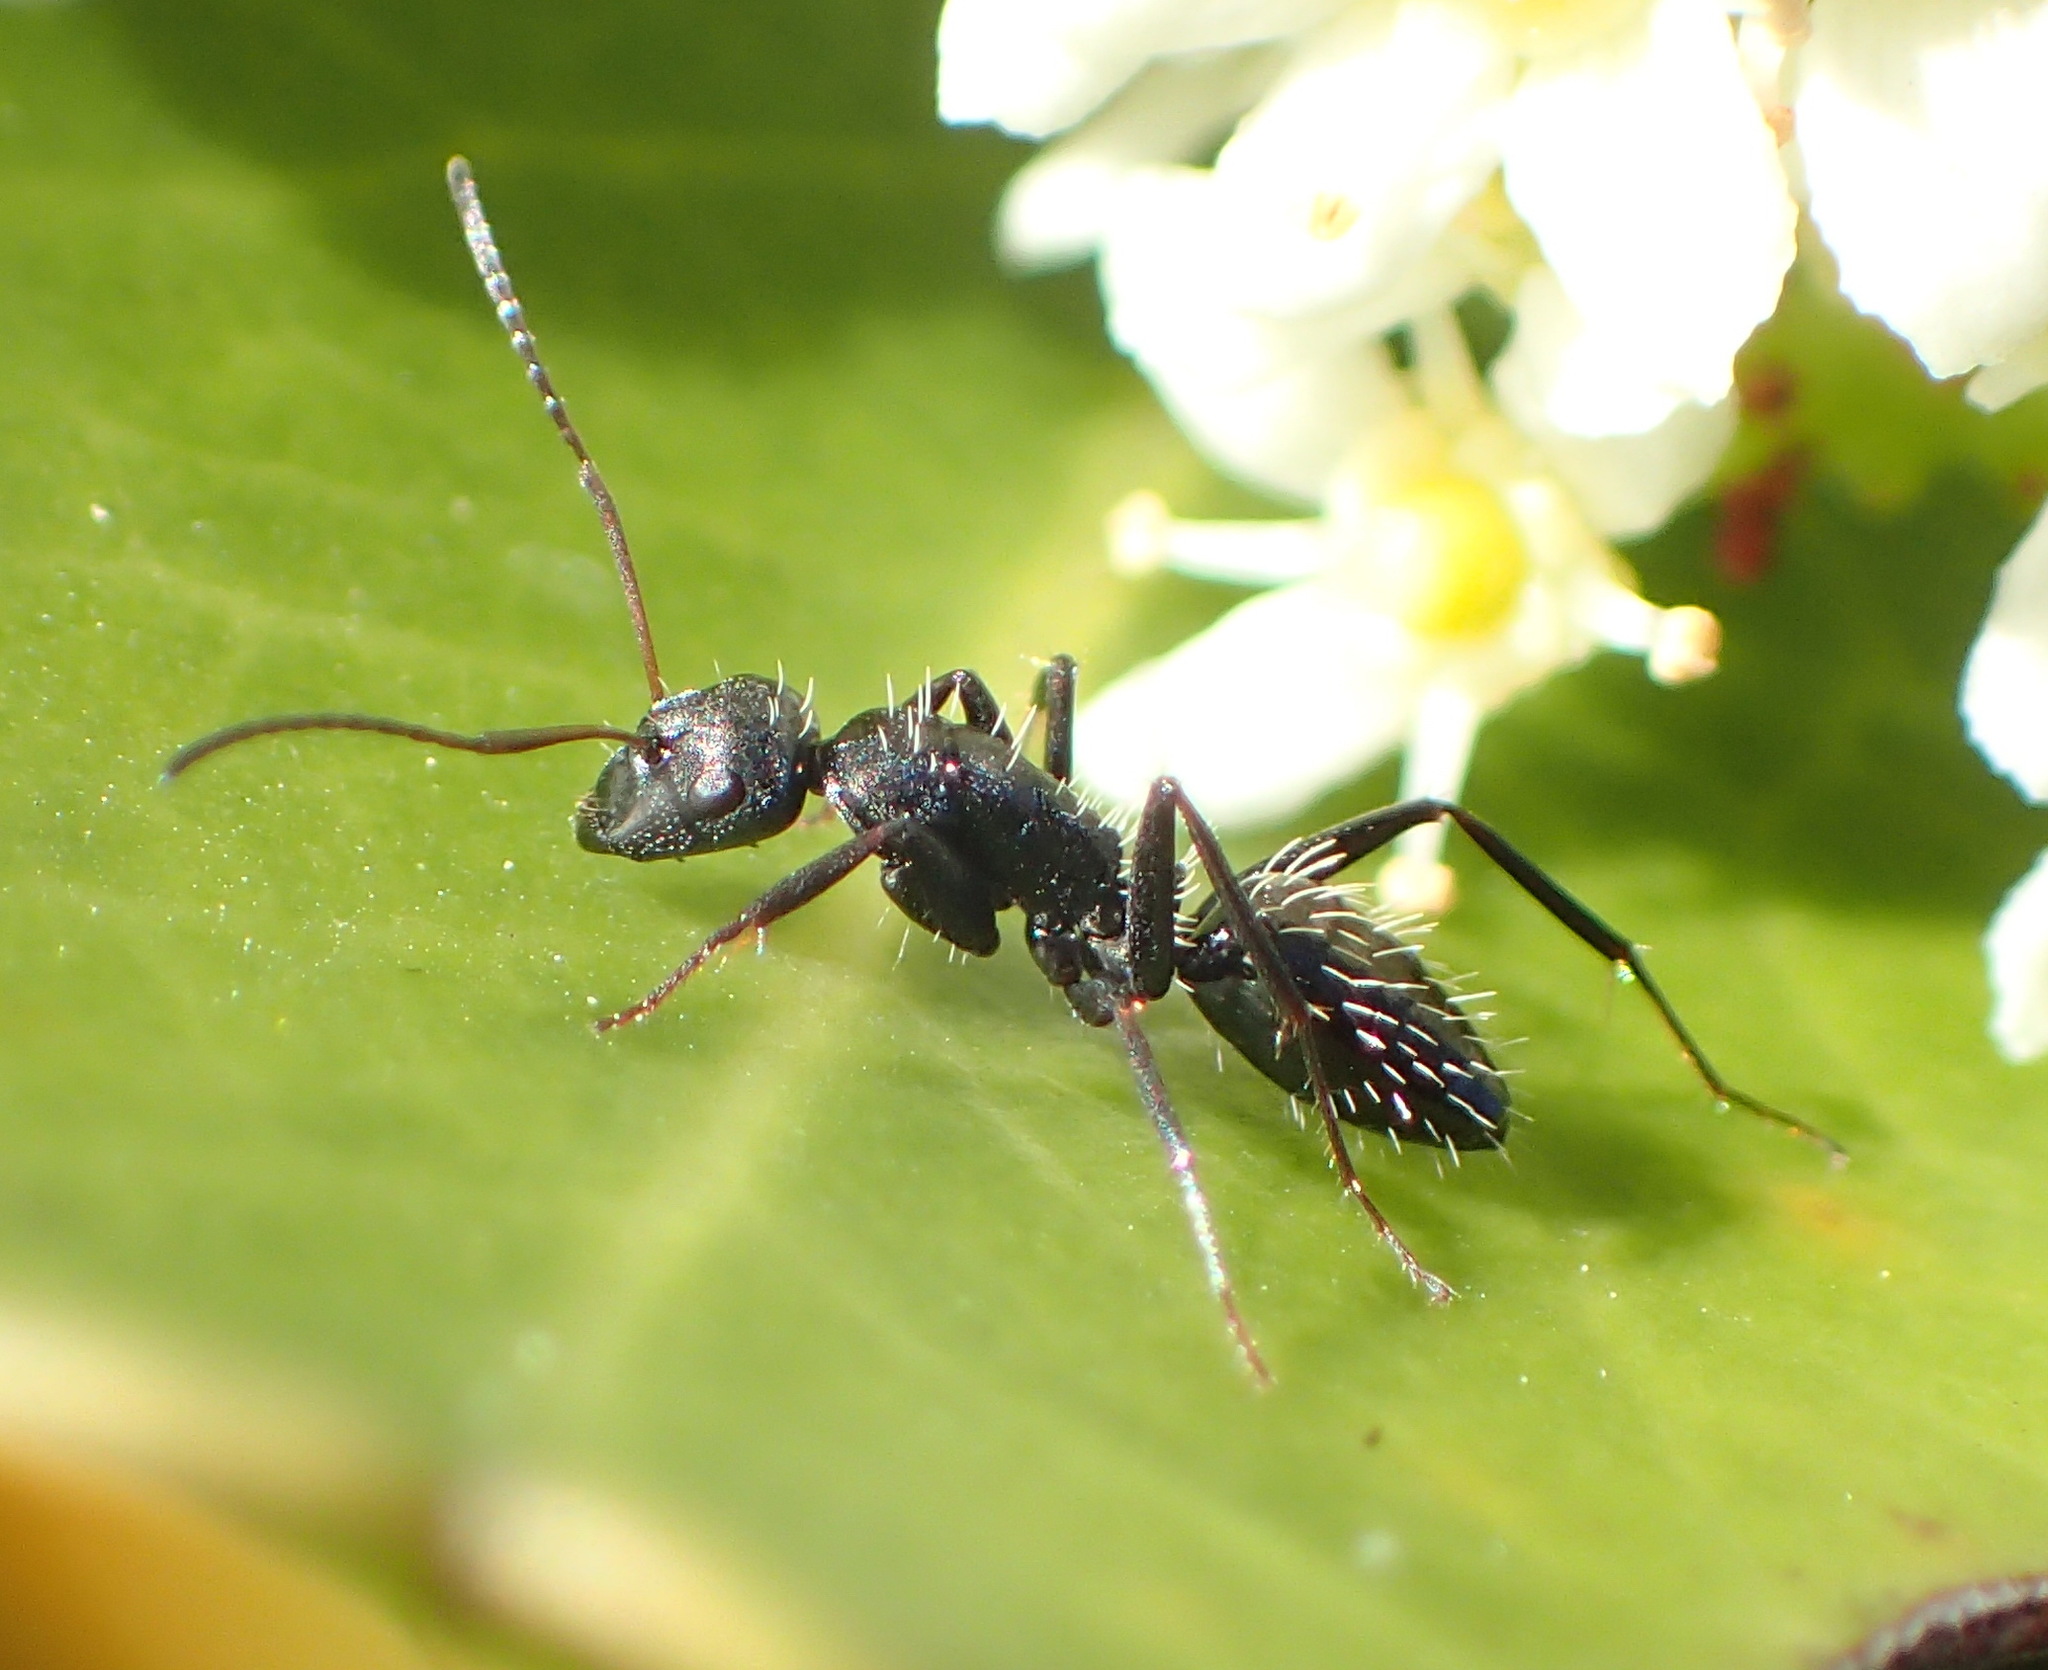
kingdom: Animalia
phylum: Arthropoda
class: Insecta
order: Hymenoptera
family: Formicidae
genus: Camponotus
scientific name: Camponotus niveosetosus
